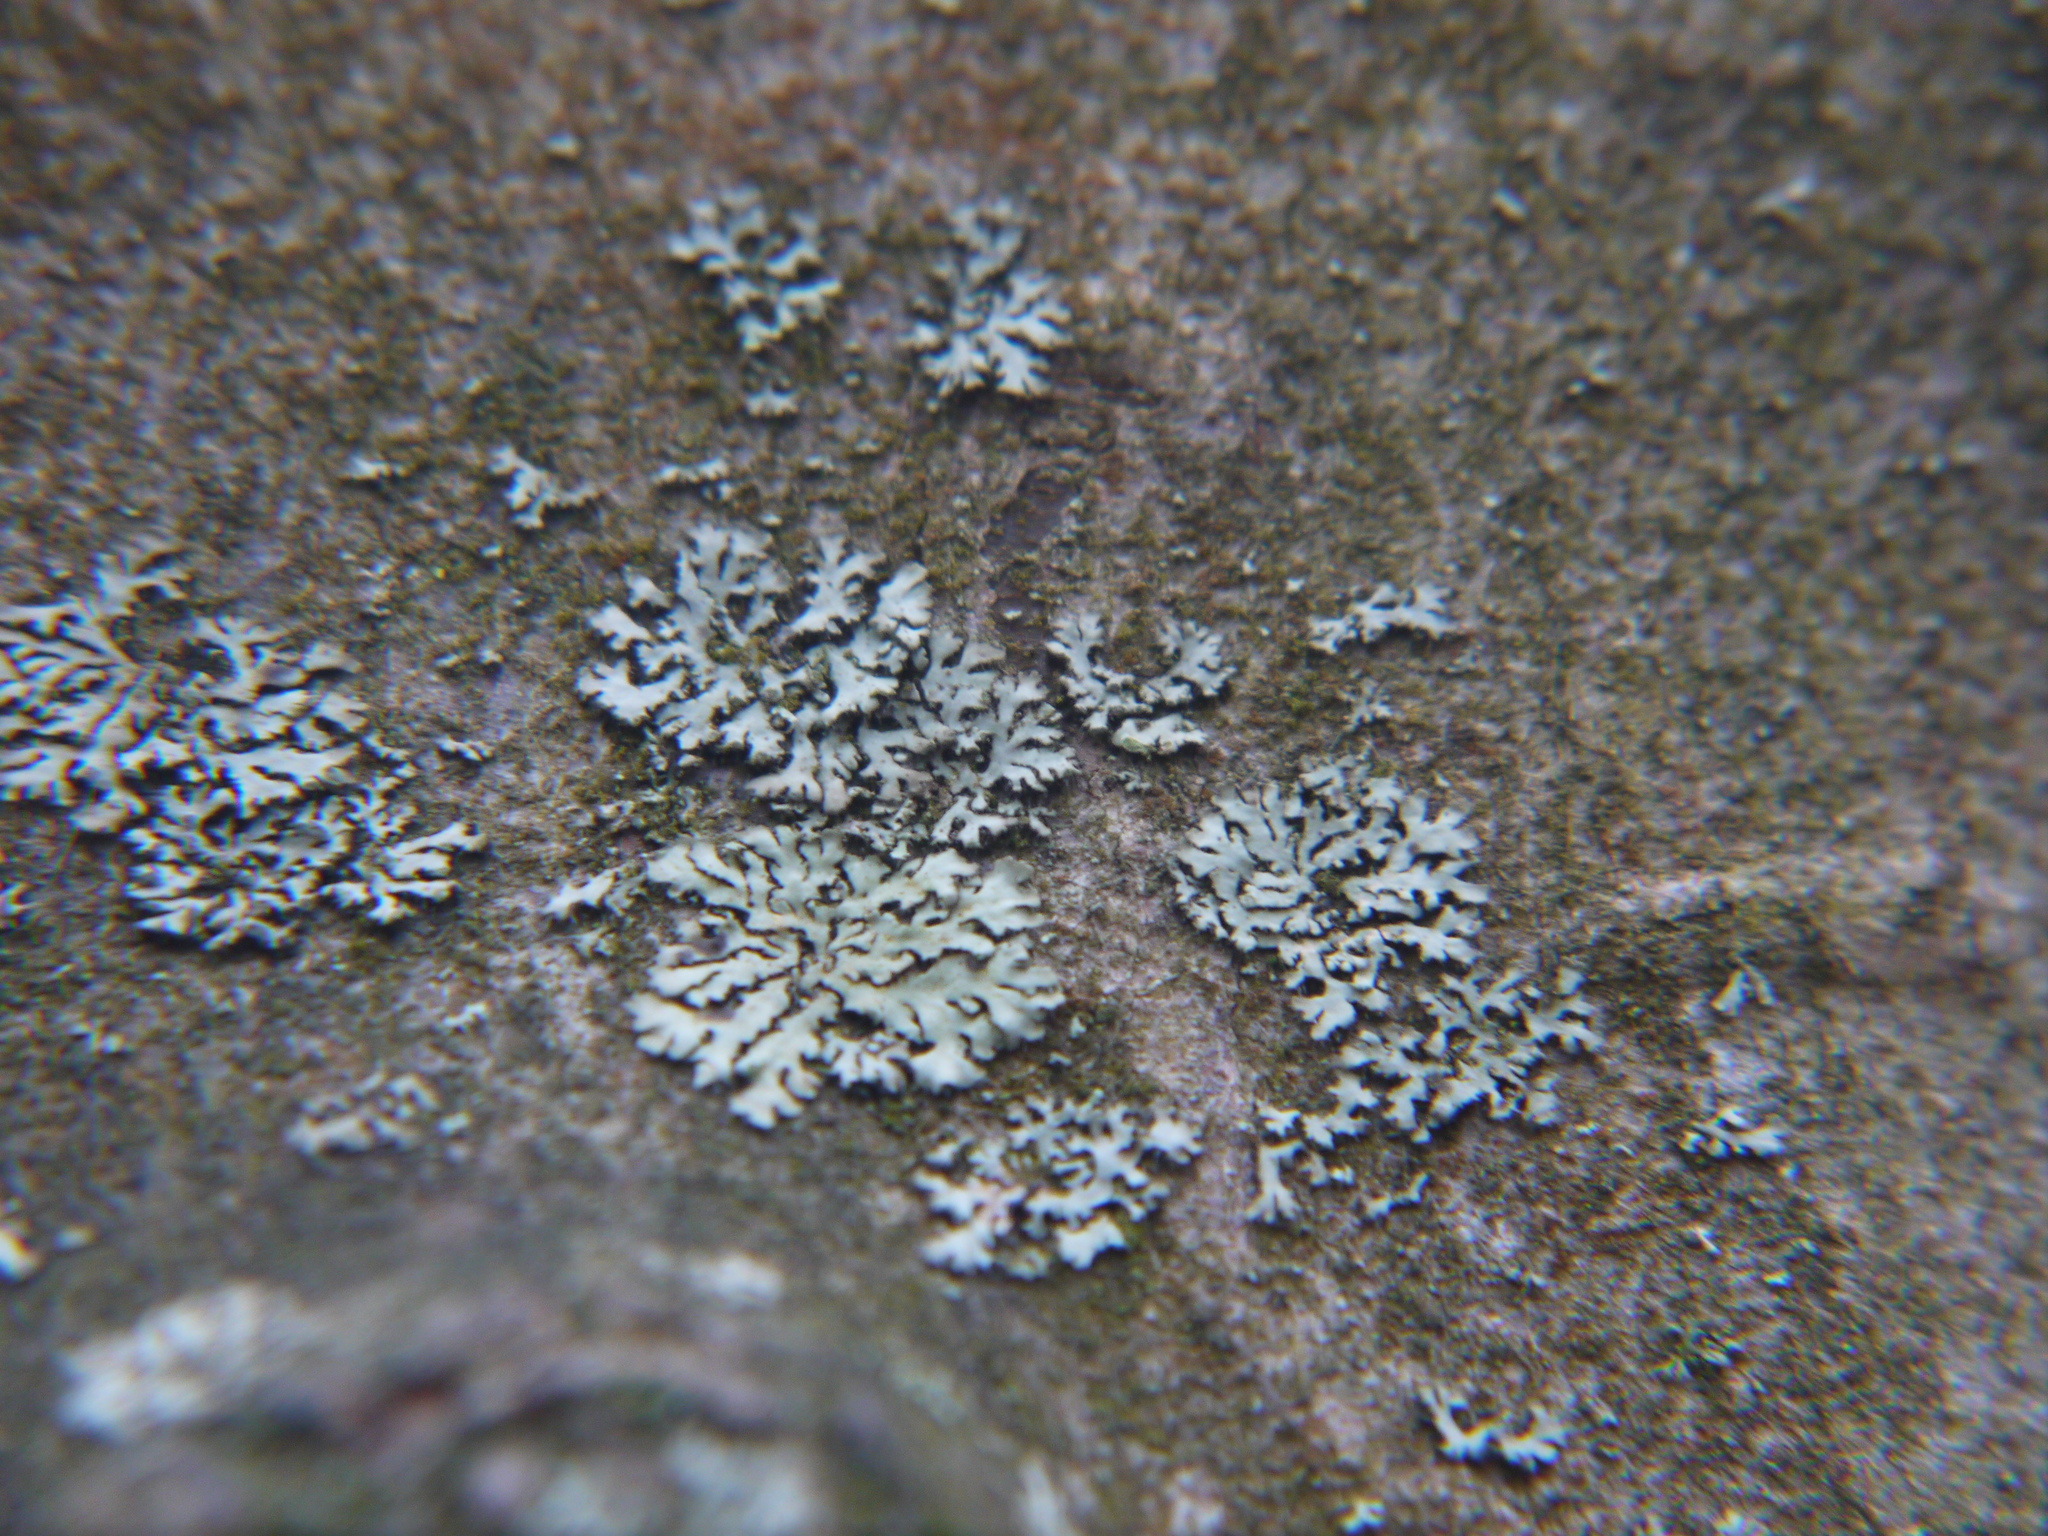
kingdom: Fungi
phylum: Ascomycota
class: Lecanoromycetes
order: Lecanorales
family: Parmeliaceae
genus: Hypogymnia
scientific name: Hypogymnia physodes
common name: Dark crottle
